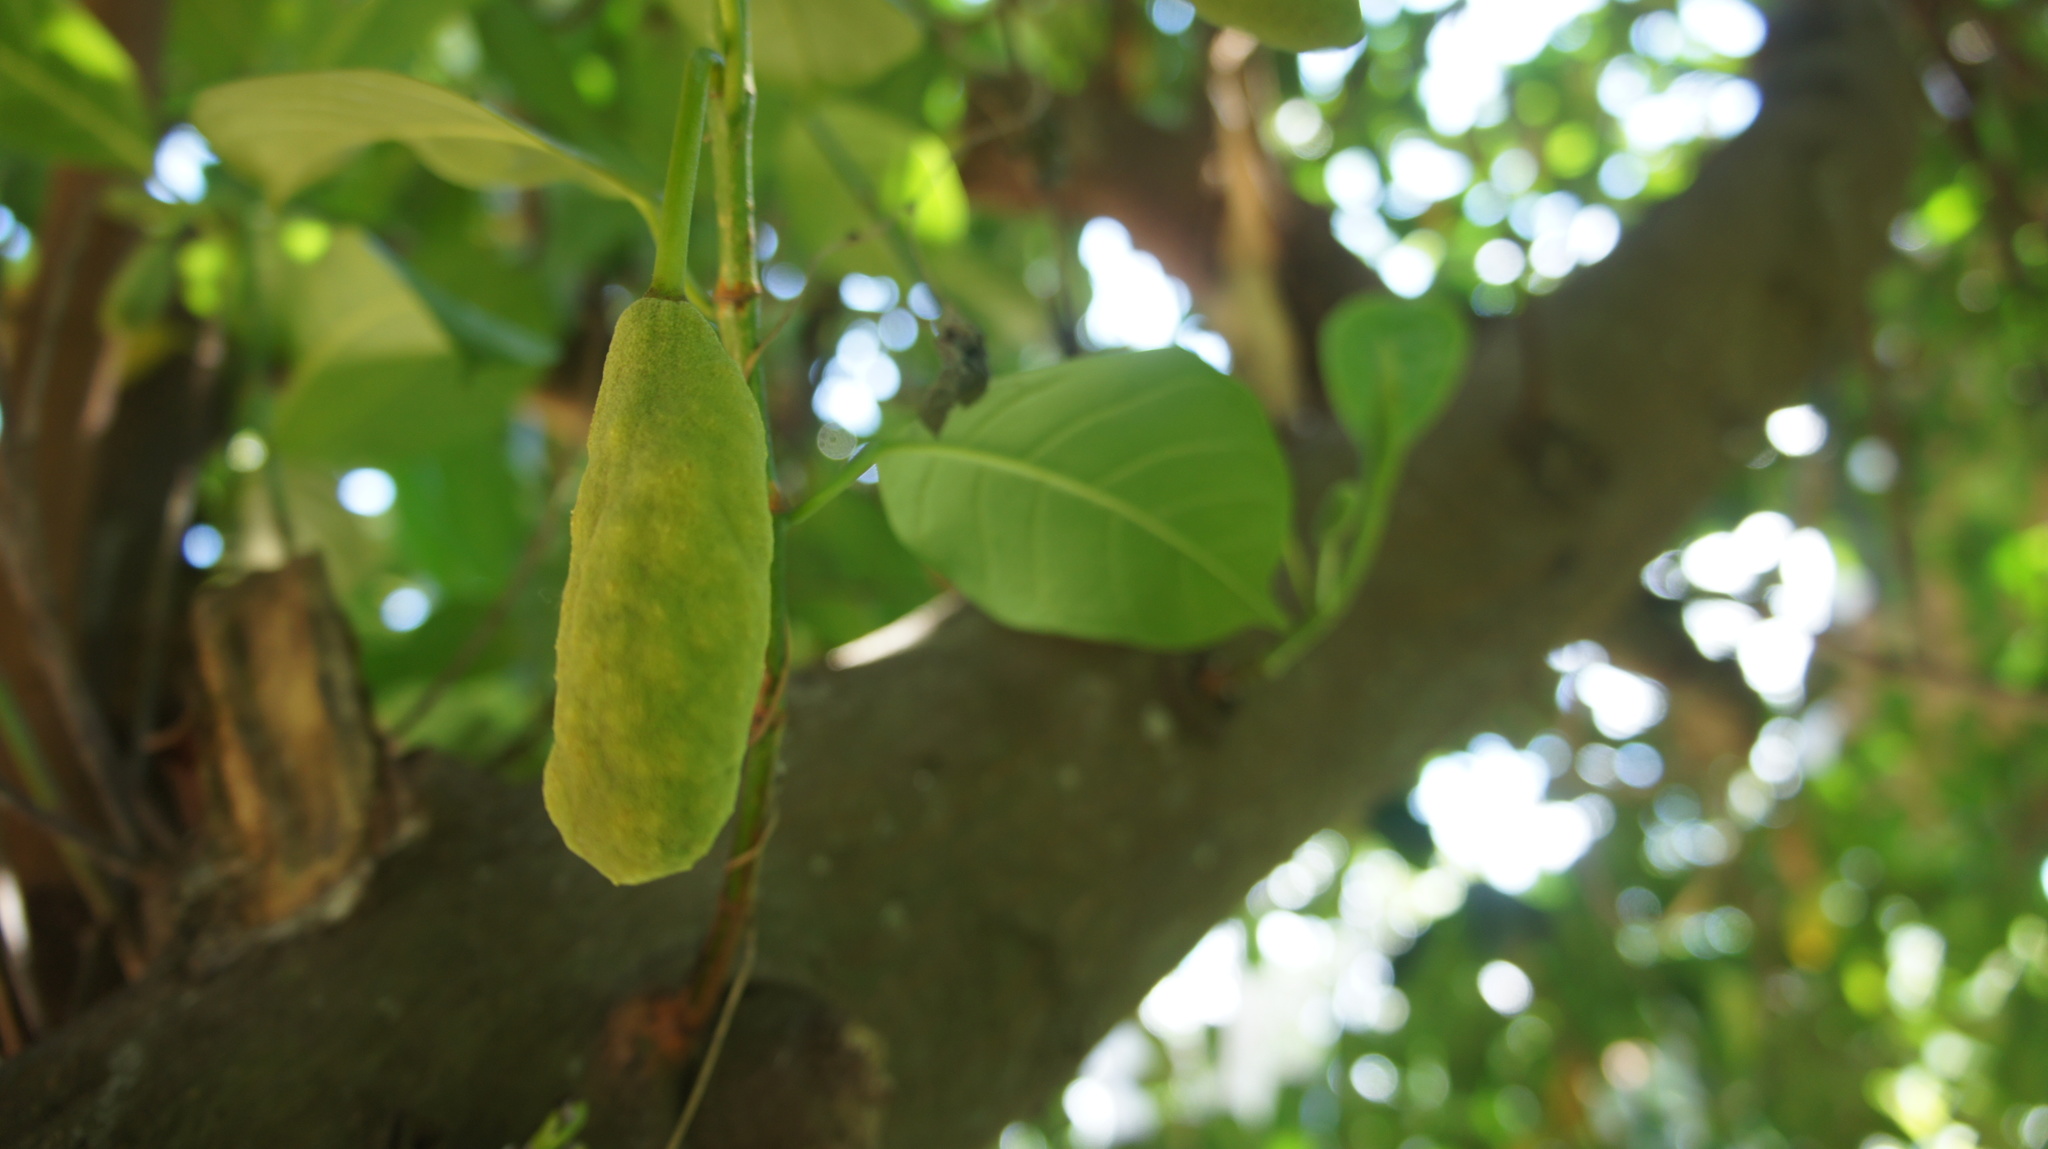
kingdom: Plantae
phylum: Tracheophyta
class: Magnoliopsida
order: Rosales
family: Moraceae
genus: Artocarpus
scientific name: Artocarpus heterophyllus
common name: Jackfruit
